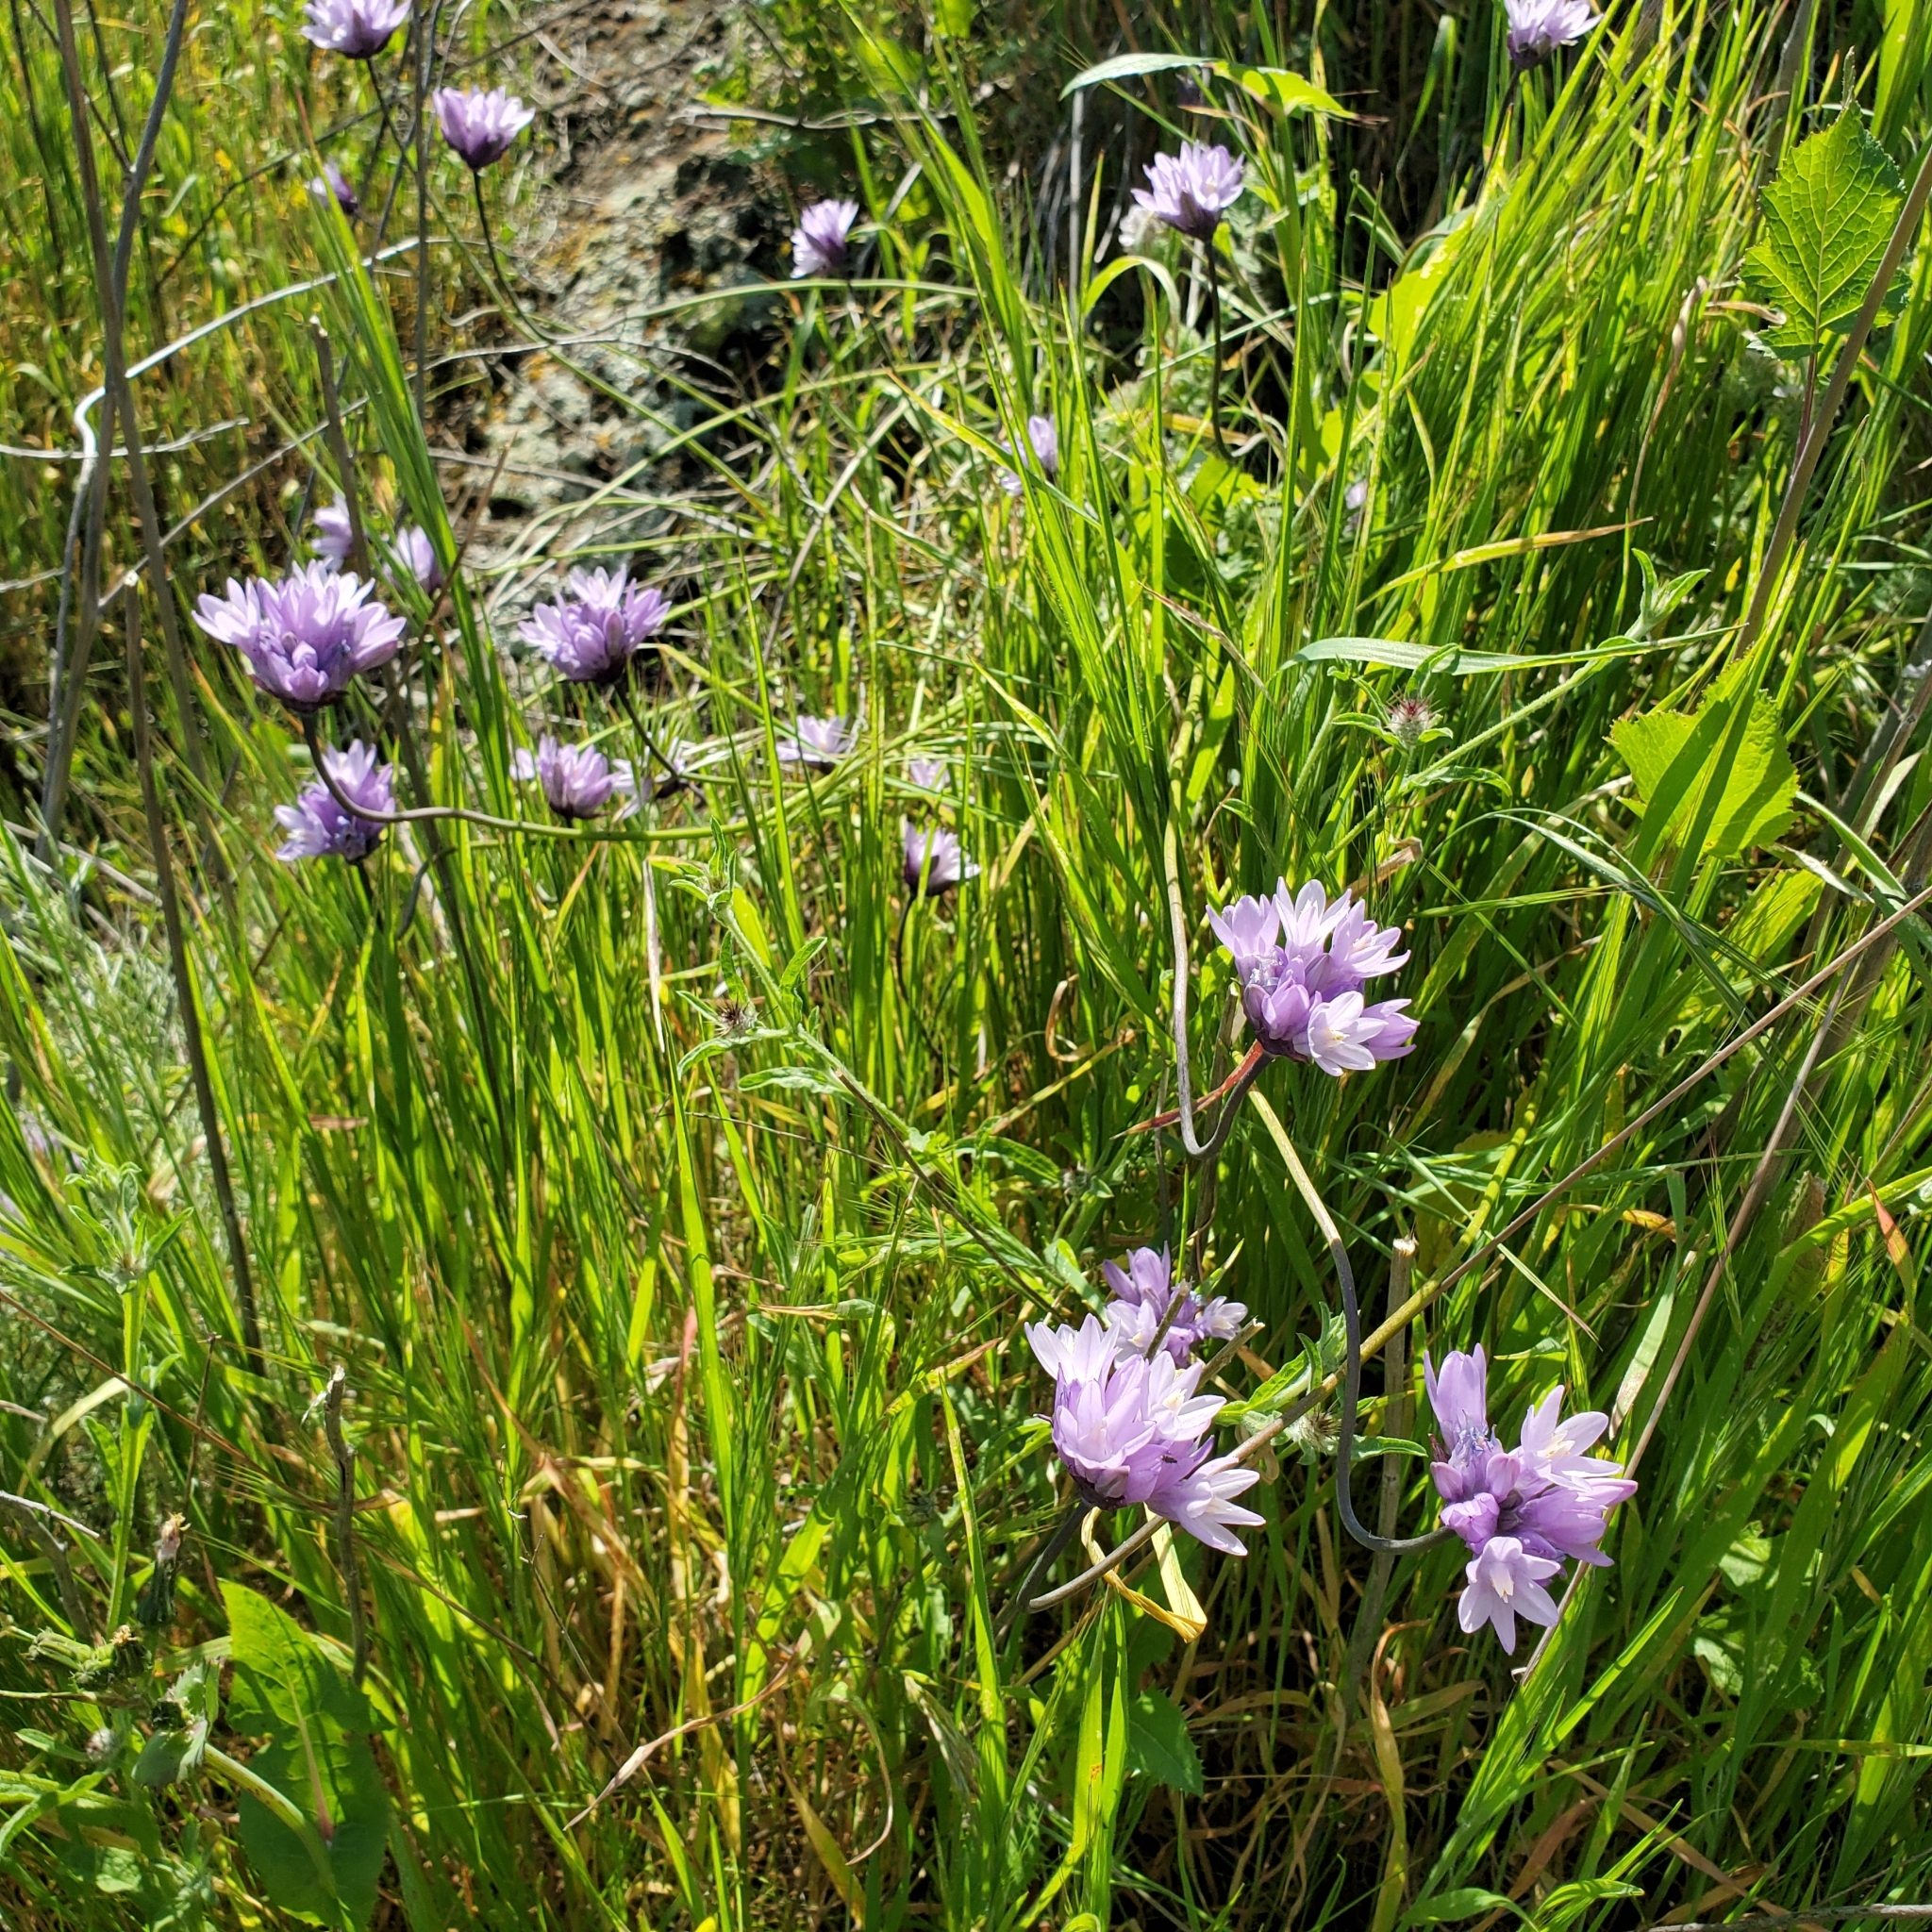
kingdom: Plantae
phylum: Tracheophyta
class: Liliopsida
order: Asparagales
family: Asparagaceae
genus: Dipterostemon
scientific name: Dipterostemon capitatus
